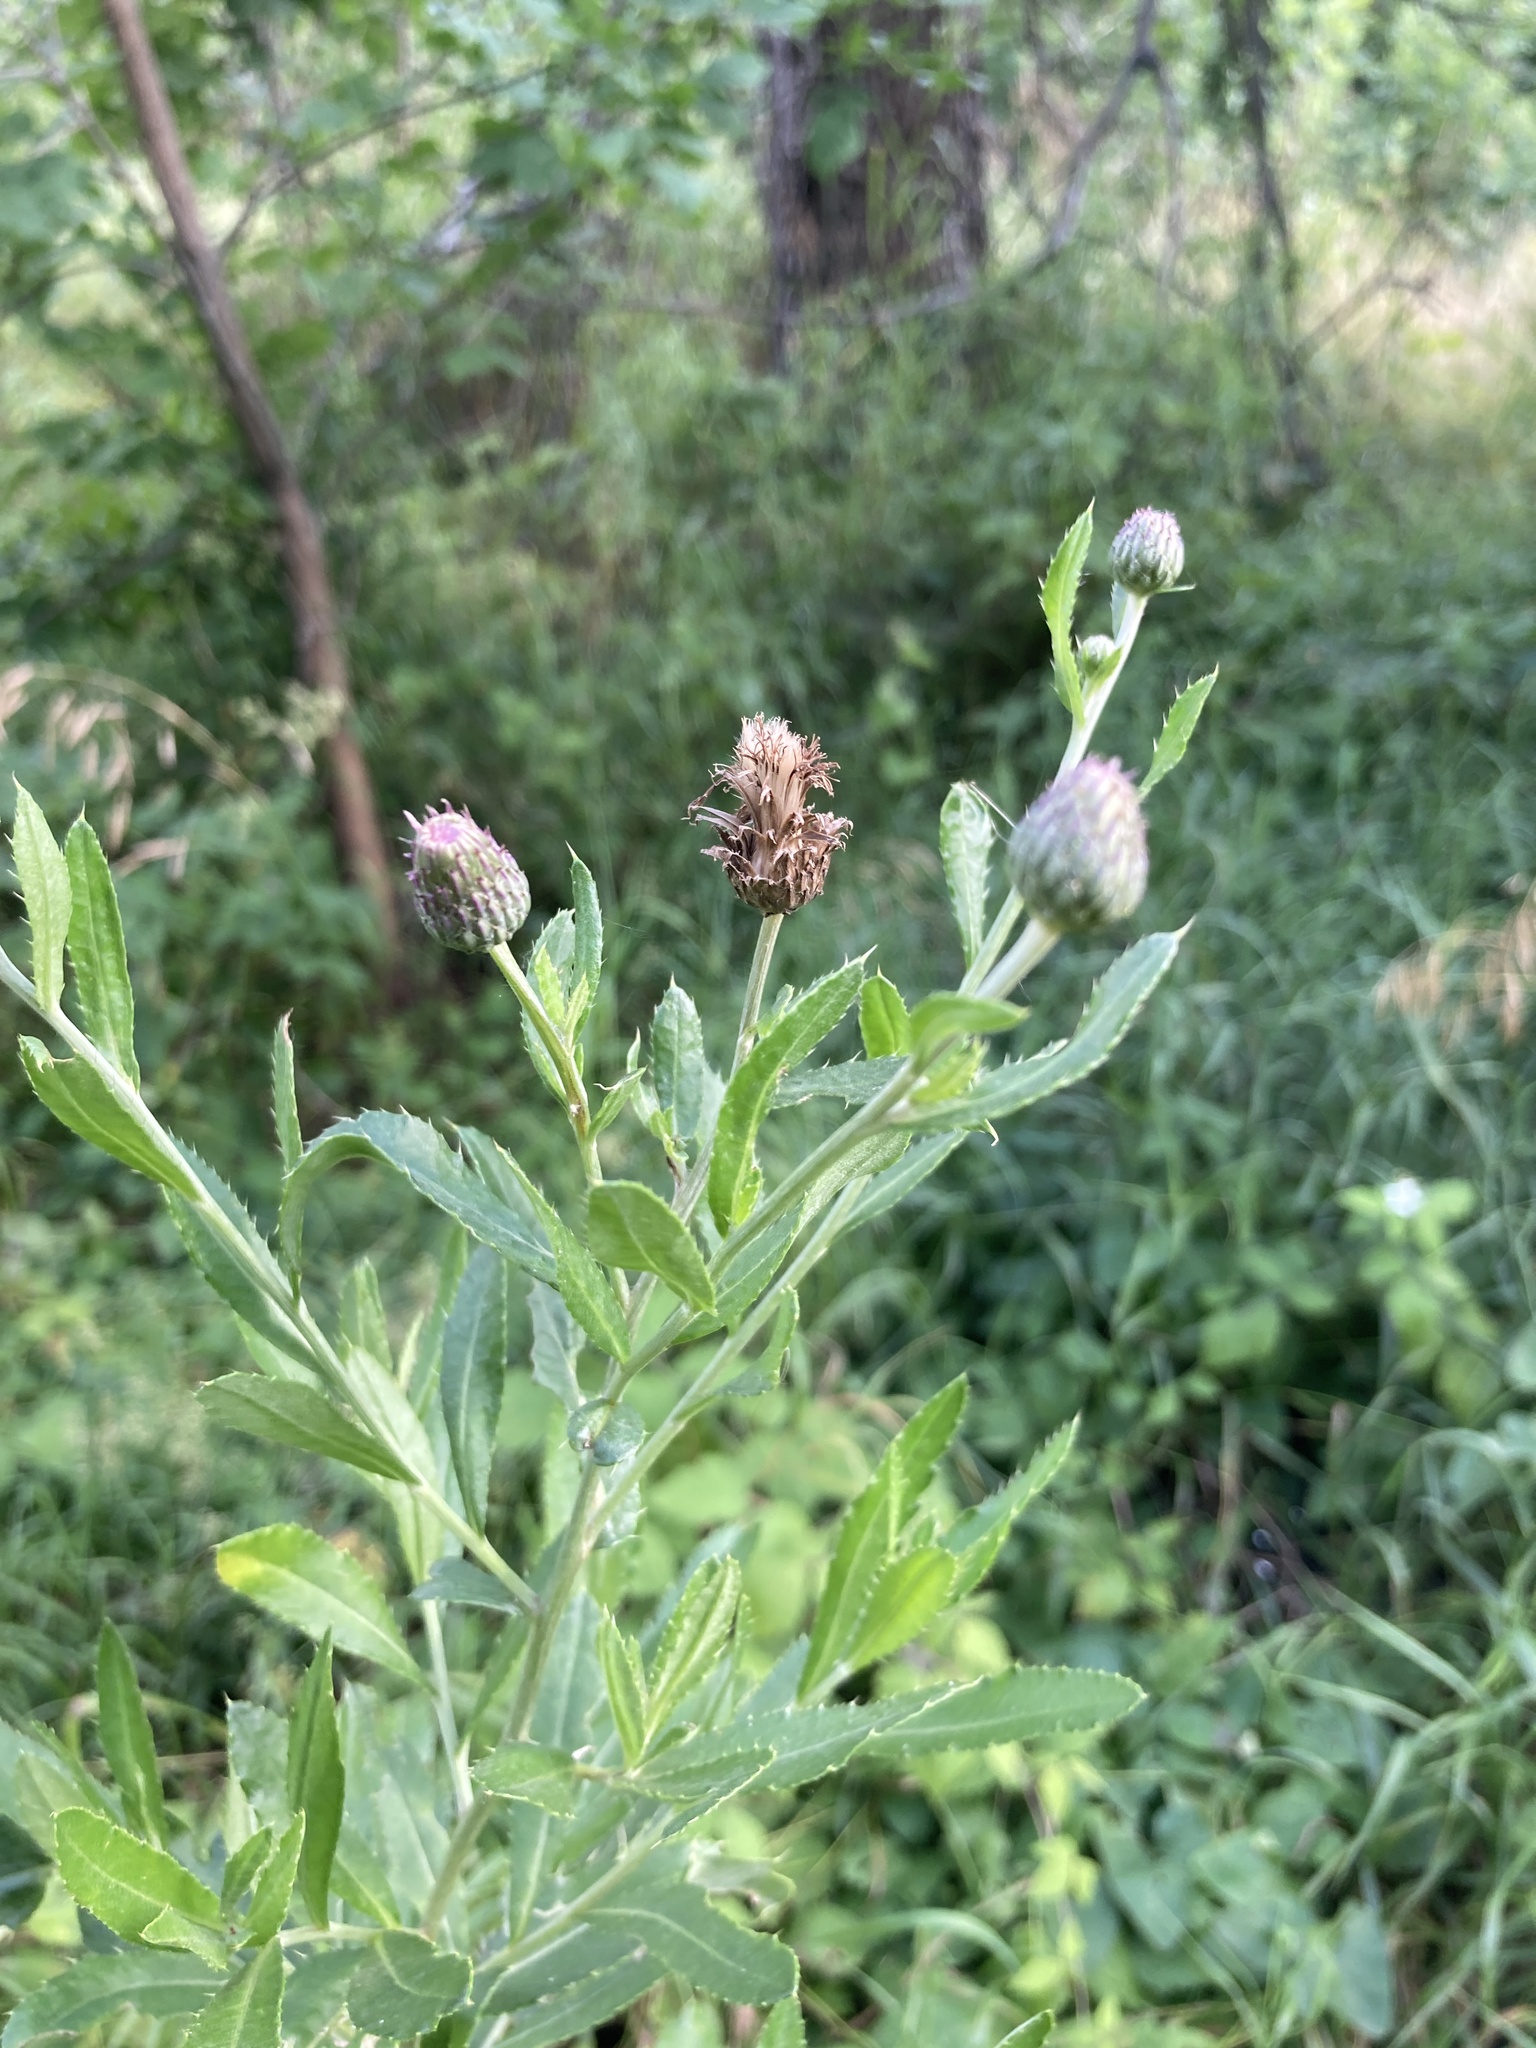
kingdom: Plantae
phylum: Tracheophyta
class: Magnoliopsida
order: Asterales
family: Asteraceae
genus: Cirsium
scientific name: Cirsium arvense
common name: Creeping thistle
